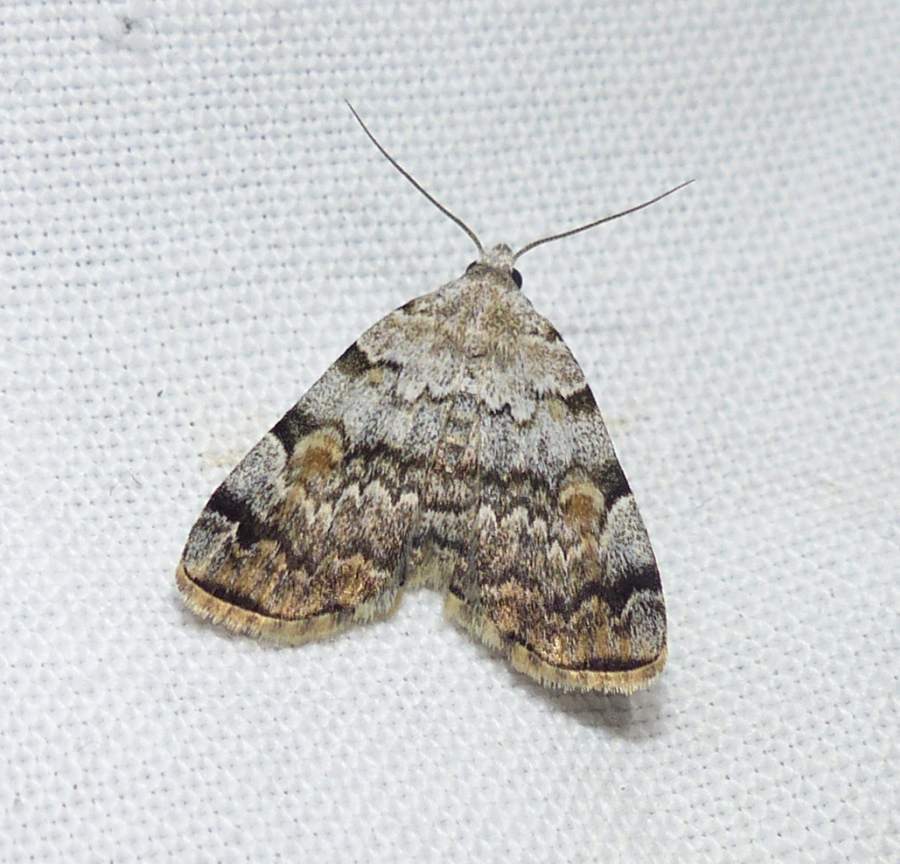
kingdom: Animalia
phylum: Arthropoda
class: Insecta
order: Lepidoptera
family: Erebidae
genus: Idia
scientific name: Idia americalis
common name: American idia moth
